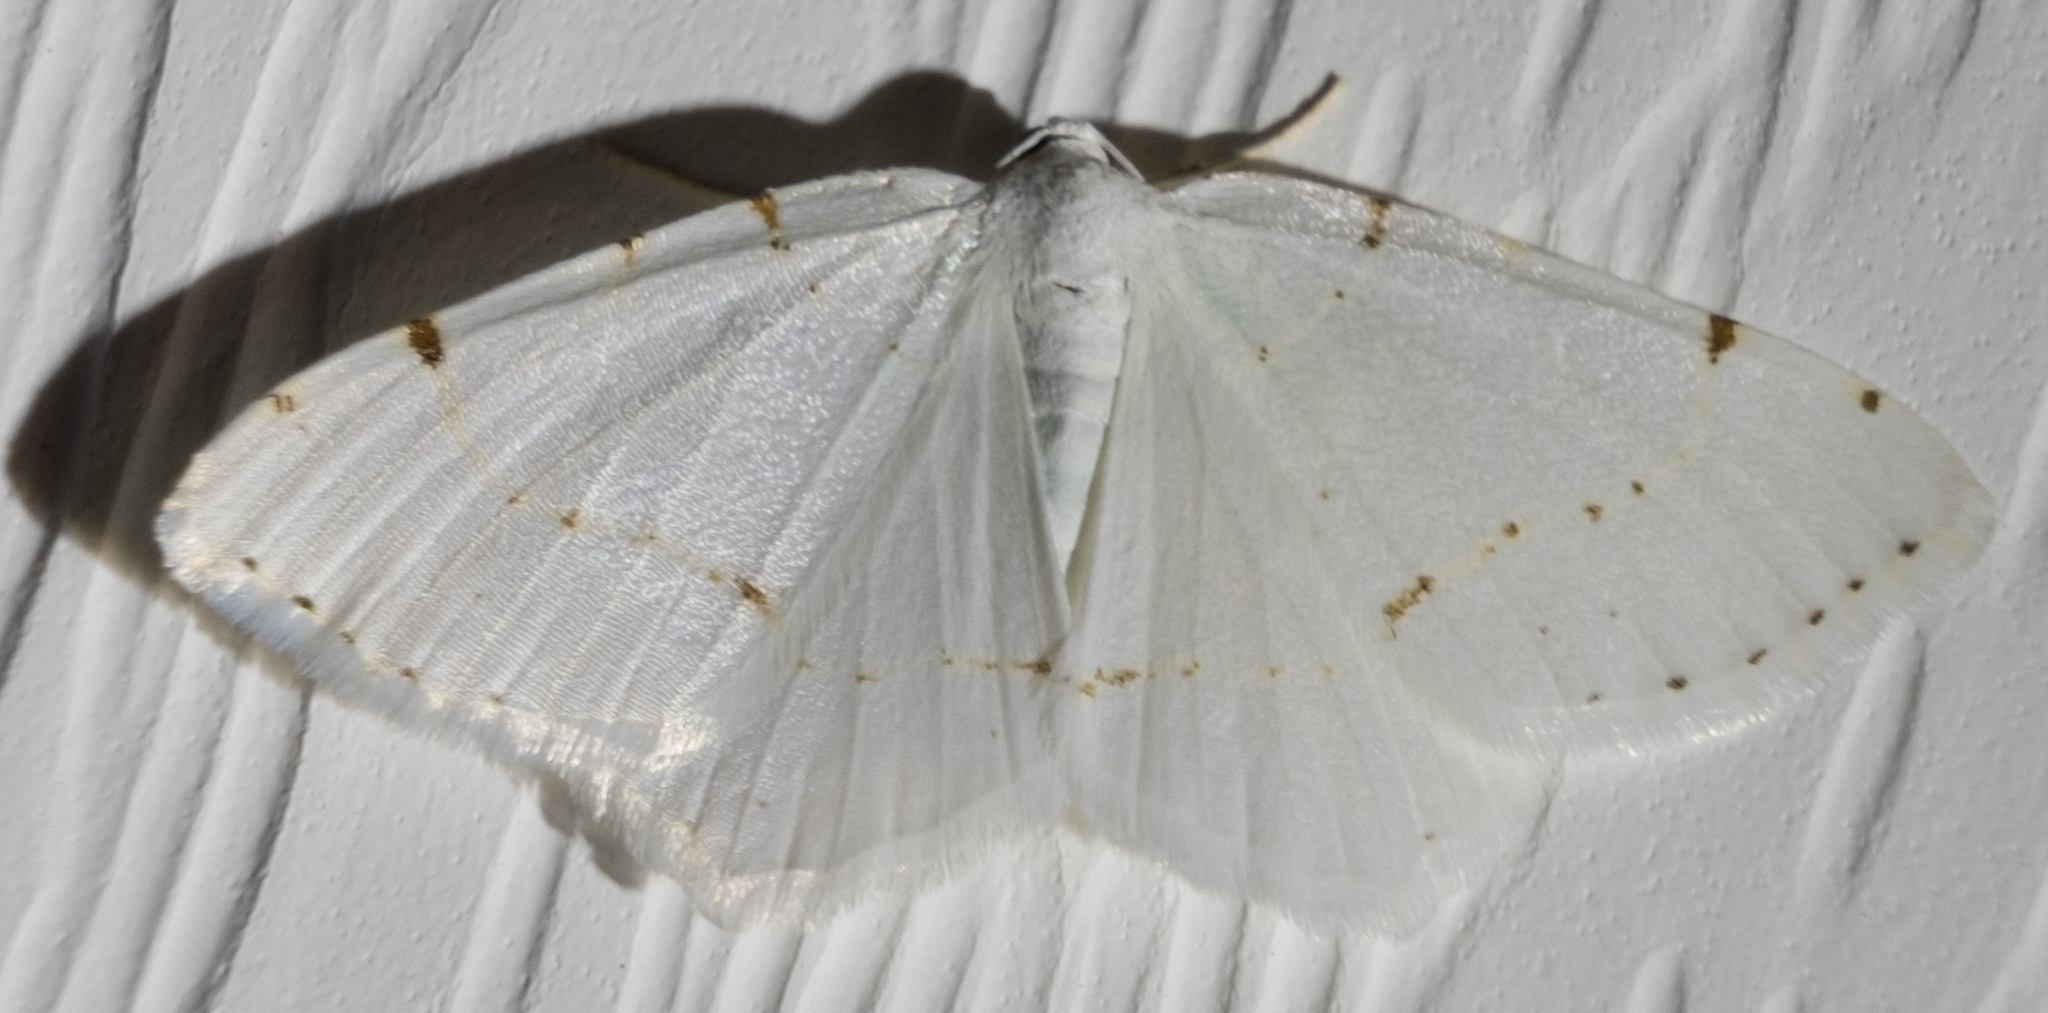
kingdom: Animalia
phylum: Arthropoda
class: Insecta
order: Lepidoptera
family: Geometridae
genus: Macaria
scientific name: Macaria pustularia
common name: Lesser maple spanworm moth
